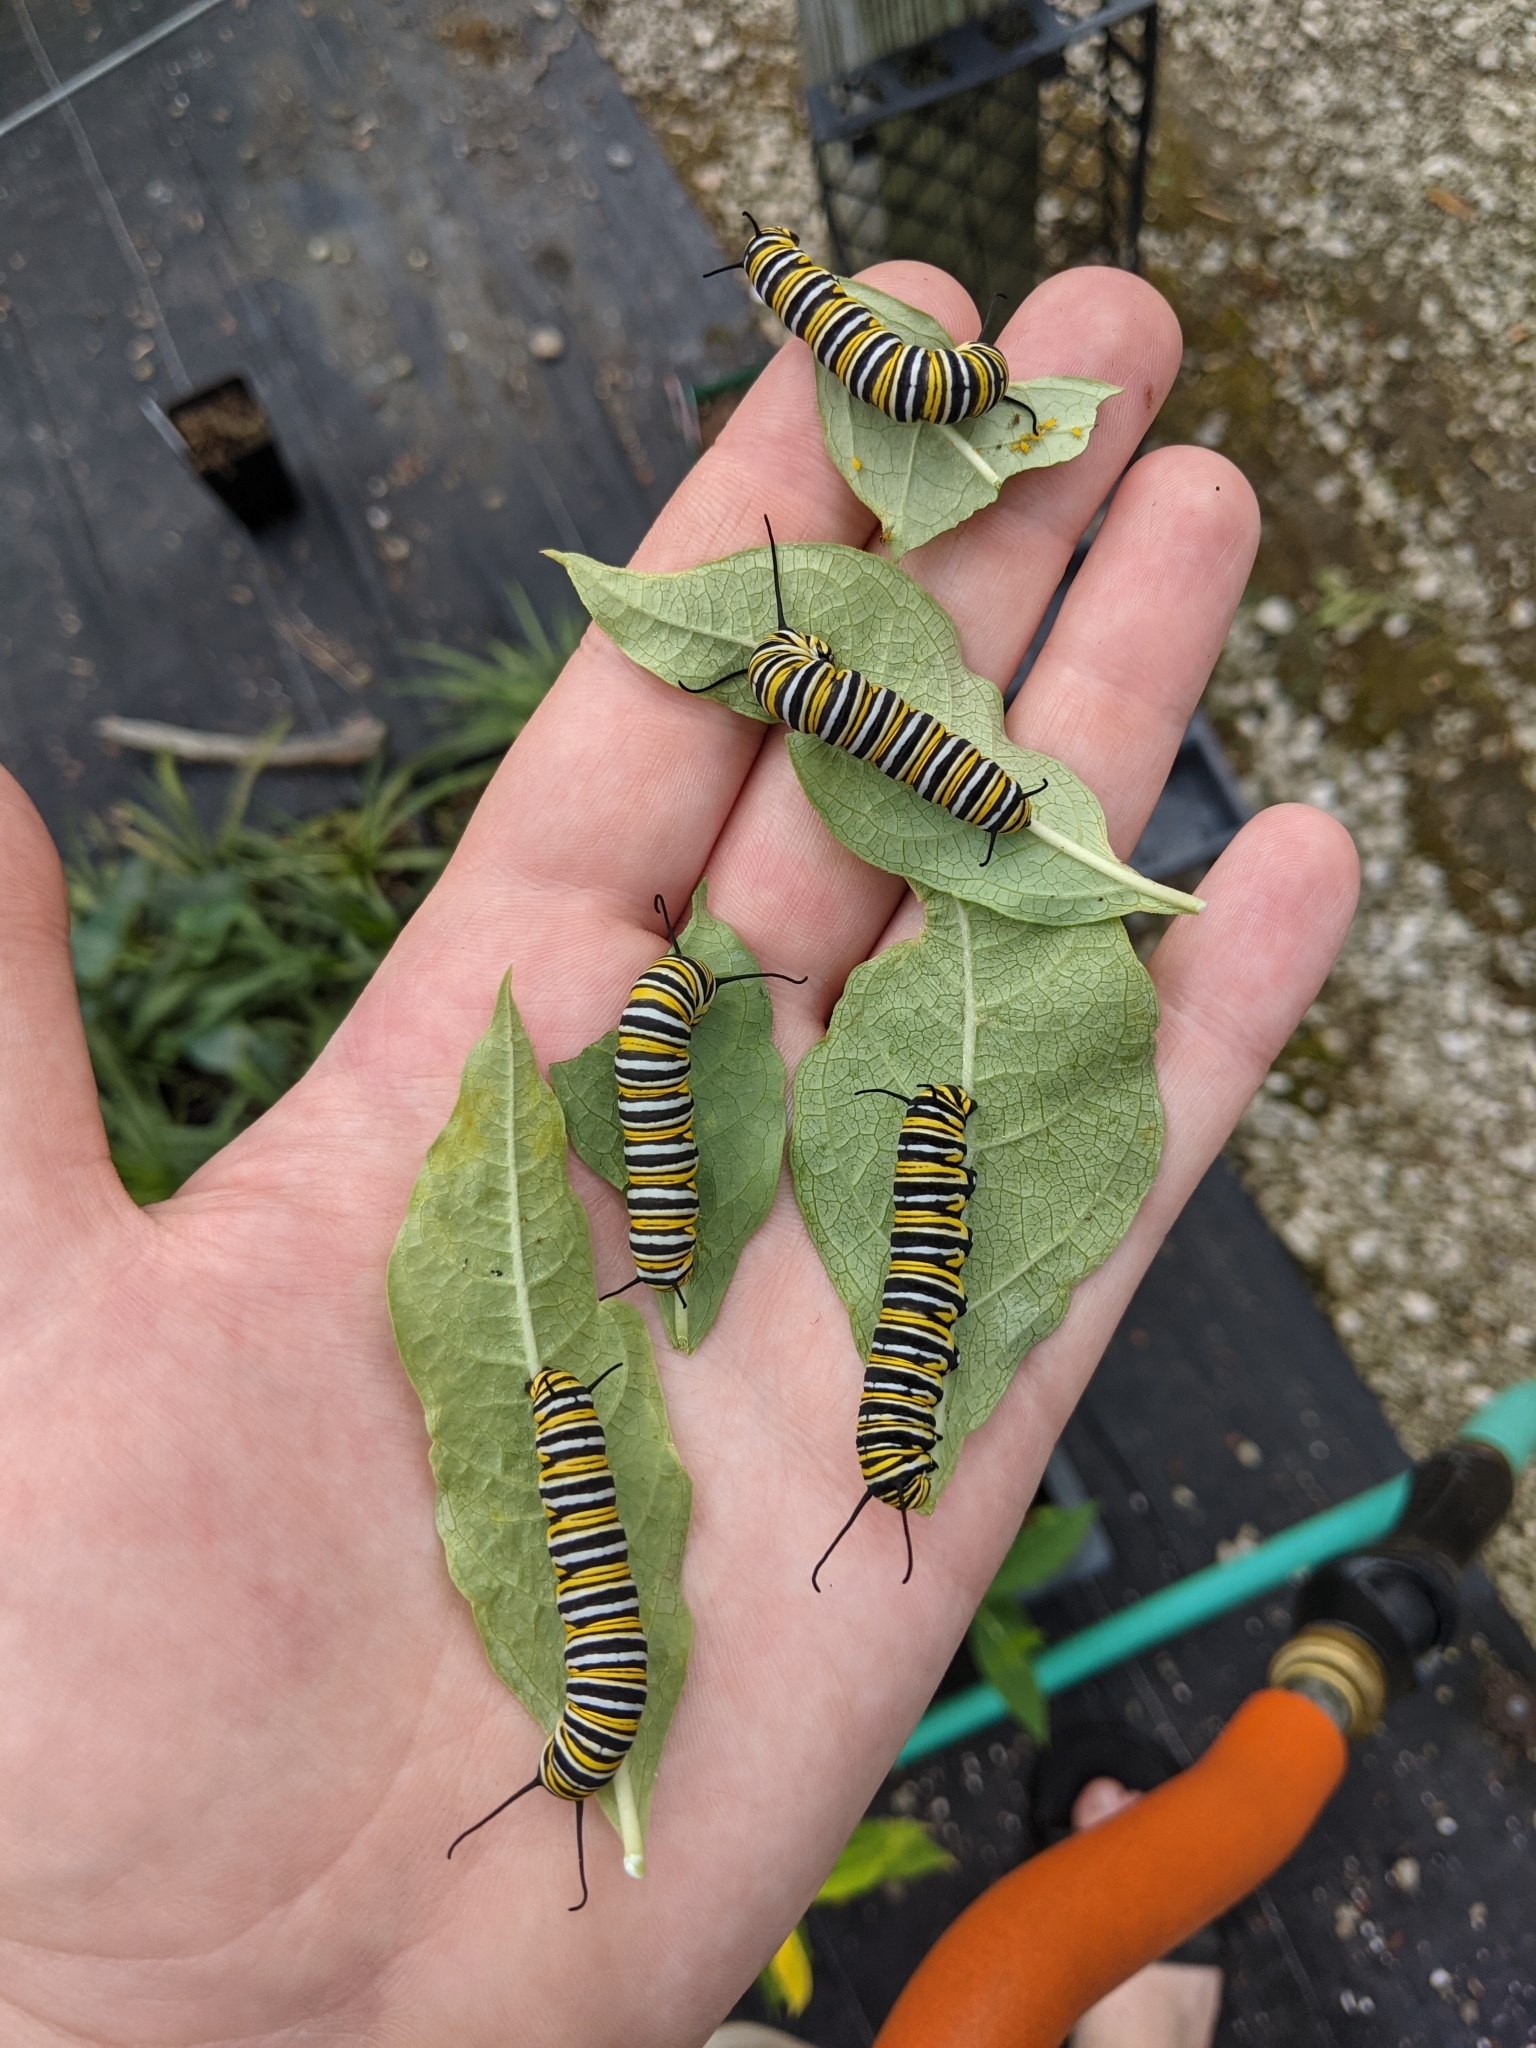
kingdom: Animalia
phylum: Arthropoda
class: Insecta
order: Lepidoptera
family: Nymphalidae
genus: Danaus
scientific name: Danaus plexippus
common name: Monarch
